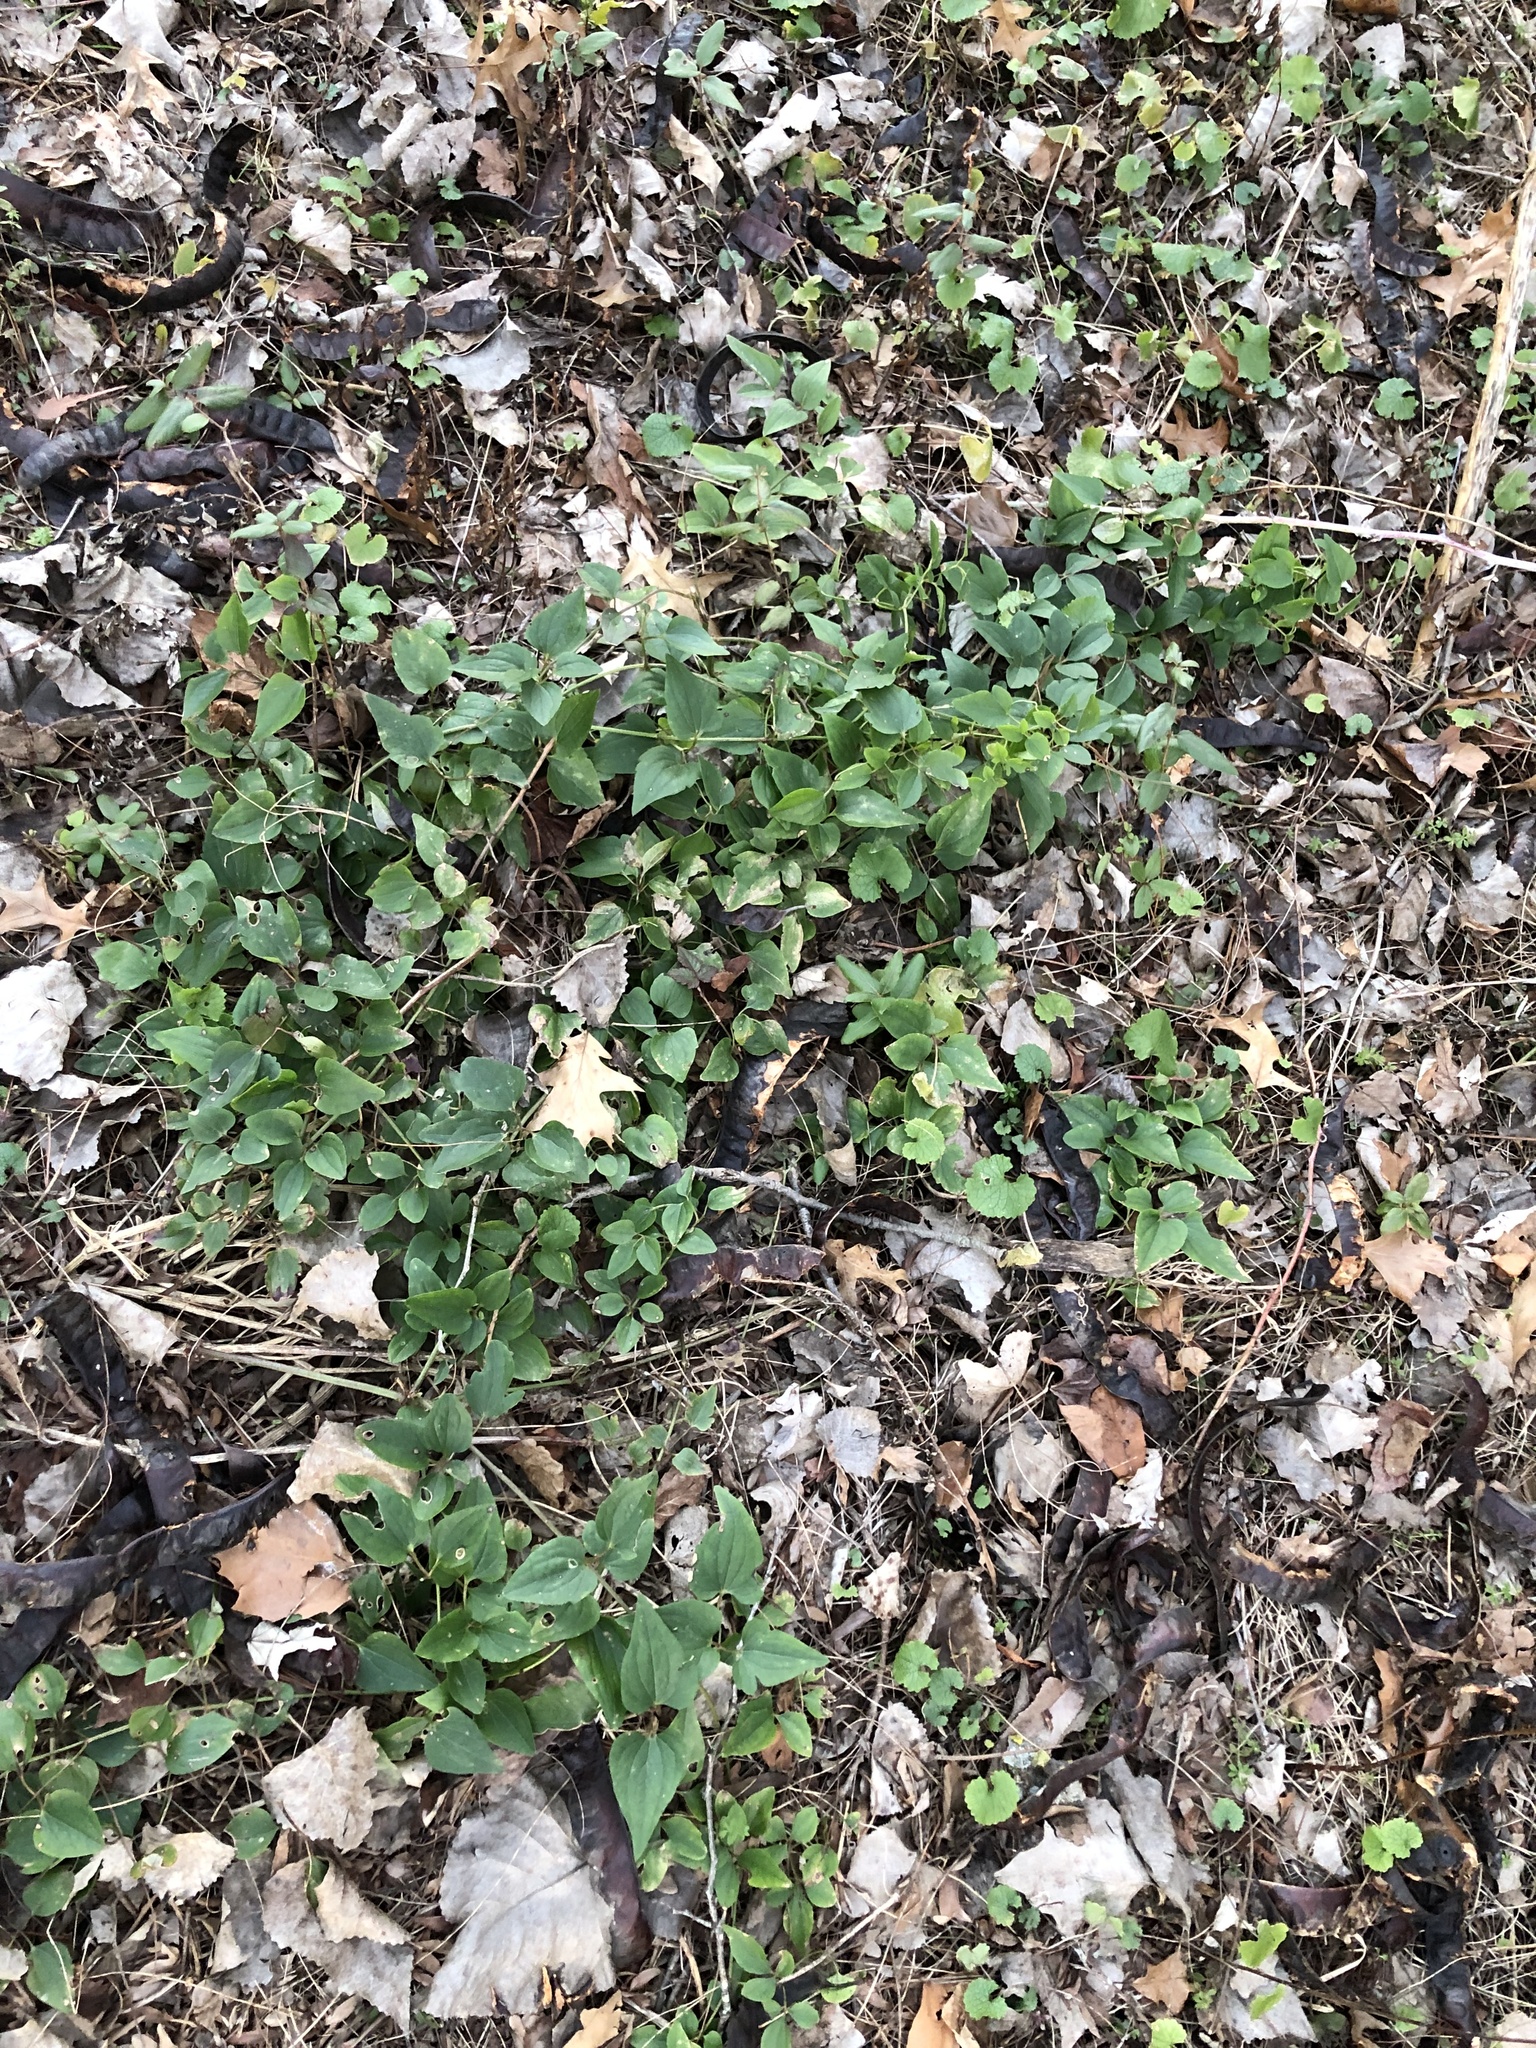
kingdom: Plantae
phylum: Tracheophyta
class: Magnoliopsida
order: Ranunculales
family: Ranunculaceae
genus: Clematis
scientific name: Clematis terniflora
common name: Sweet autumn clematis
